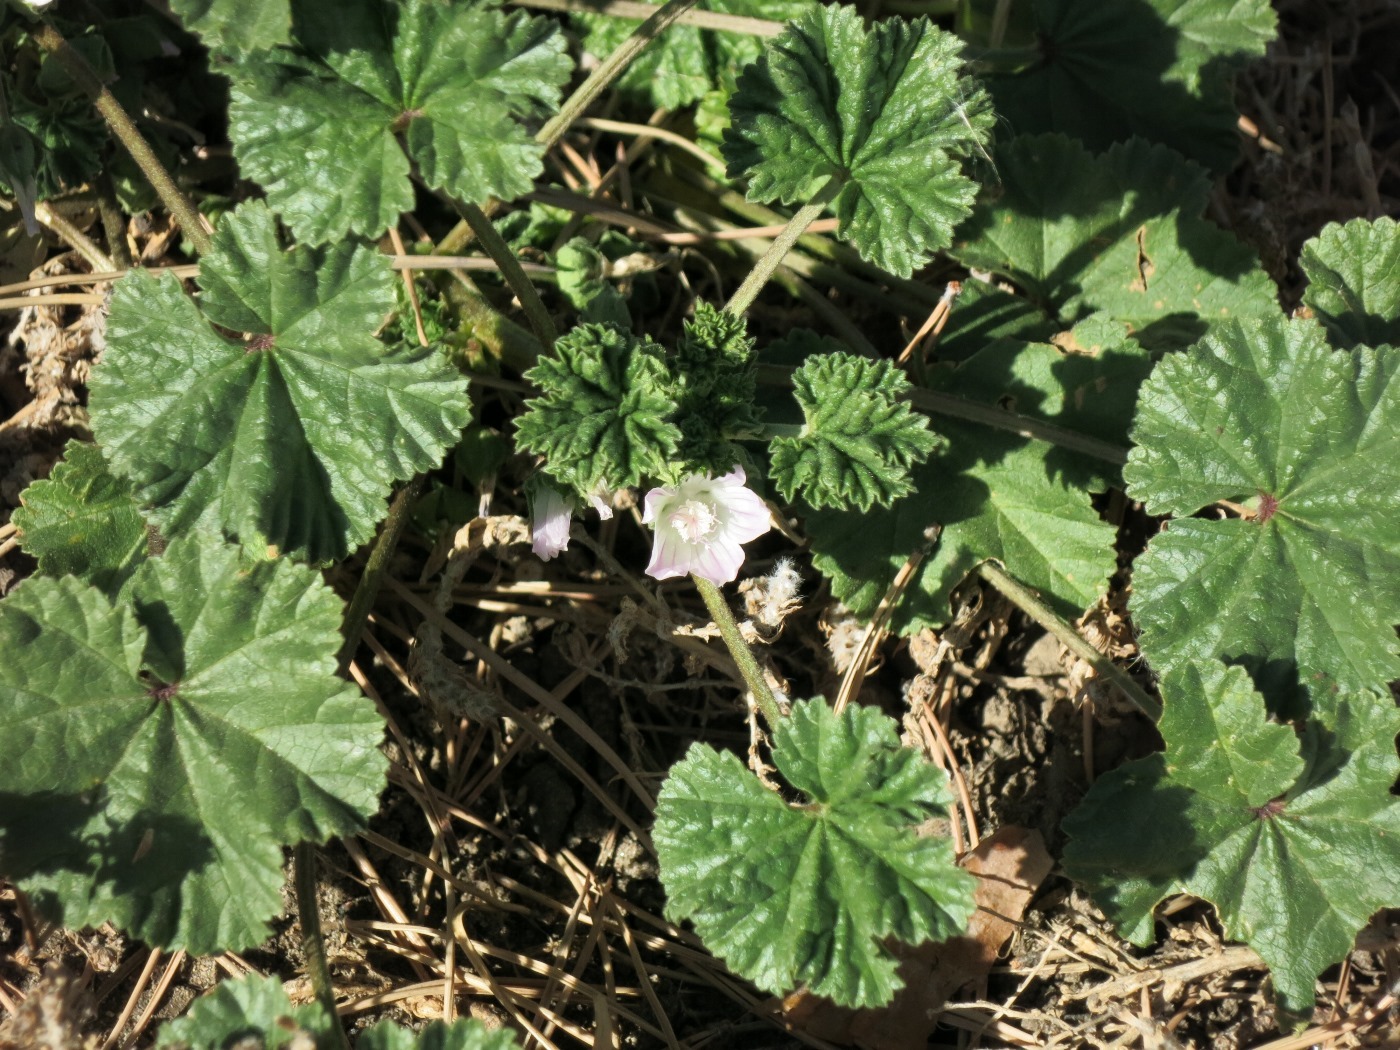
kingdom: Plantae
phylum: Tracheophyta
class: Magnoliopsida
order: Malvales
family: Malvaceae
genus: Malva
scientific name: Malva neglecta
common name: Common mallow
